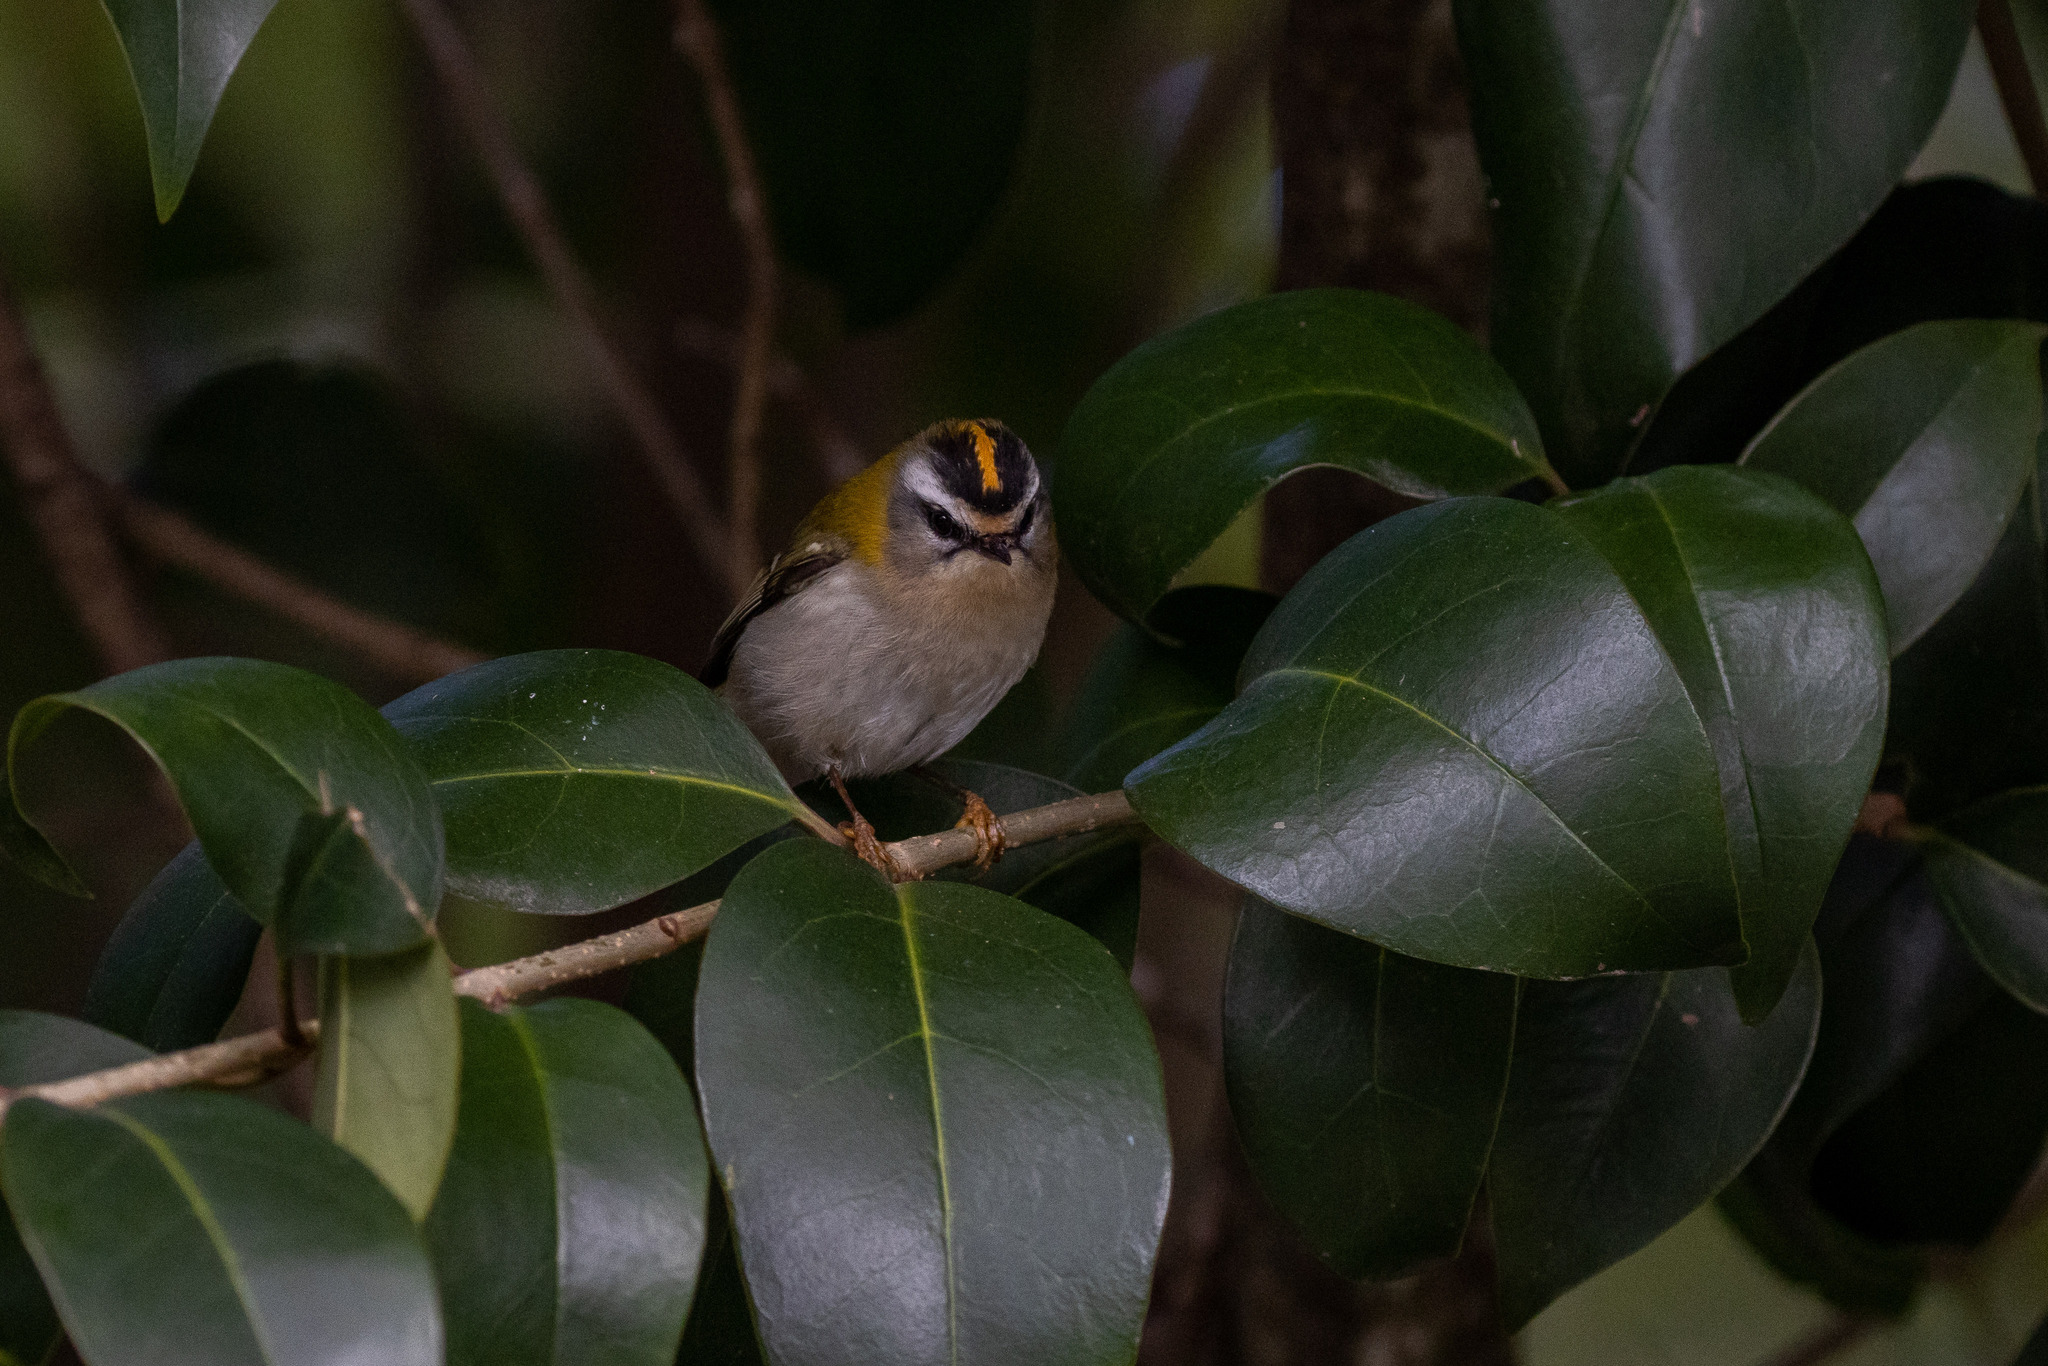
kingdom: Animalia
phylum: Chordata
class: Aves
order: Passeriformes
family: Regulidae
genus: Regulus
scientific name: Regulus ignicapilla
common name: Firecrest
